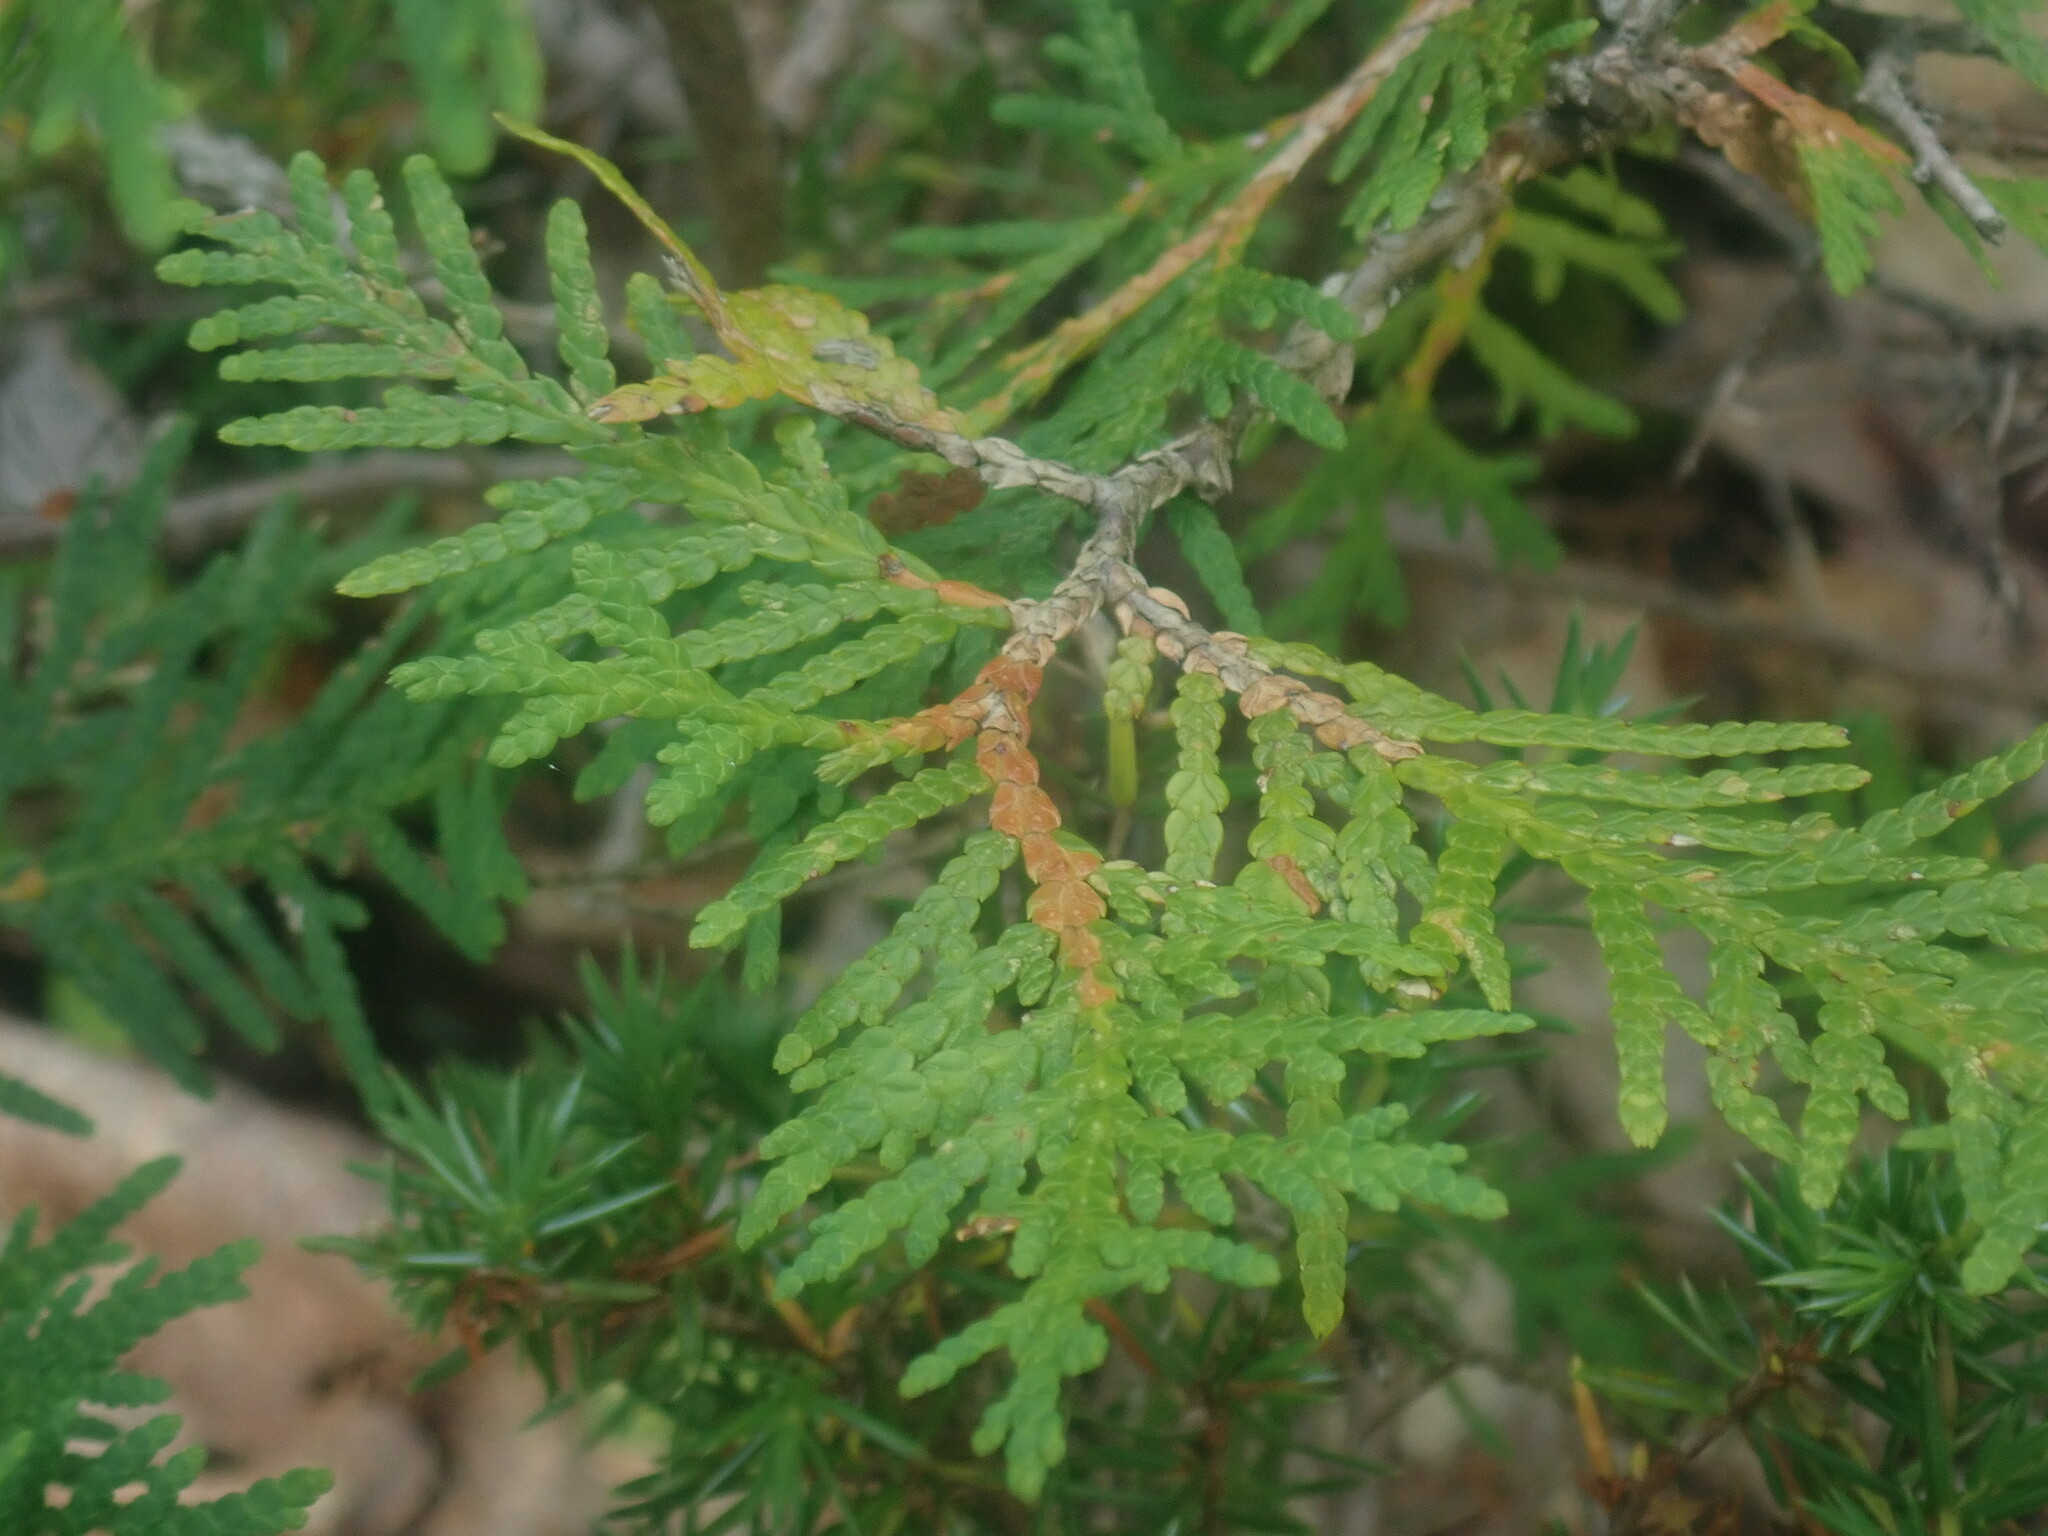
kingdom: Plantae
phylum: Tracheophyta
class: Pinopsida
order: Pinales
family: Cupressaceae
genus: Thuja
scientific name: Thuja occidentalis
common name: Northern white-cedar
